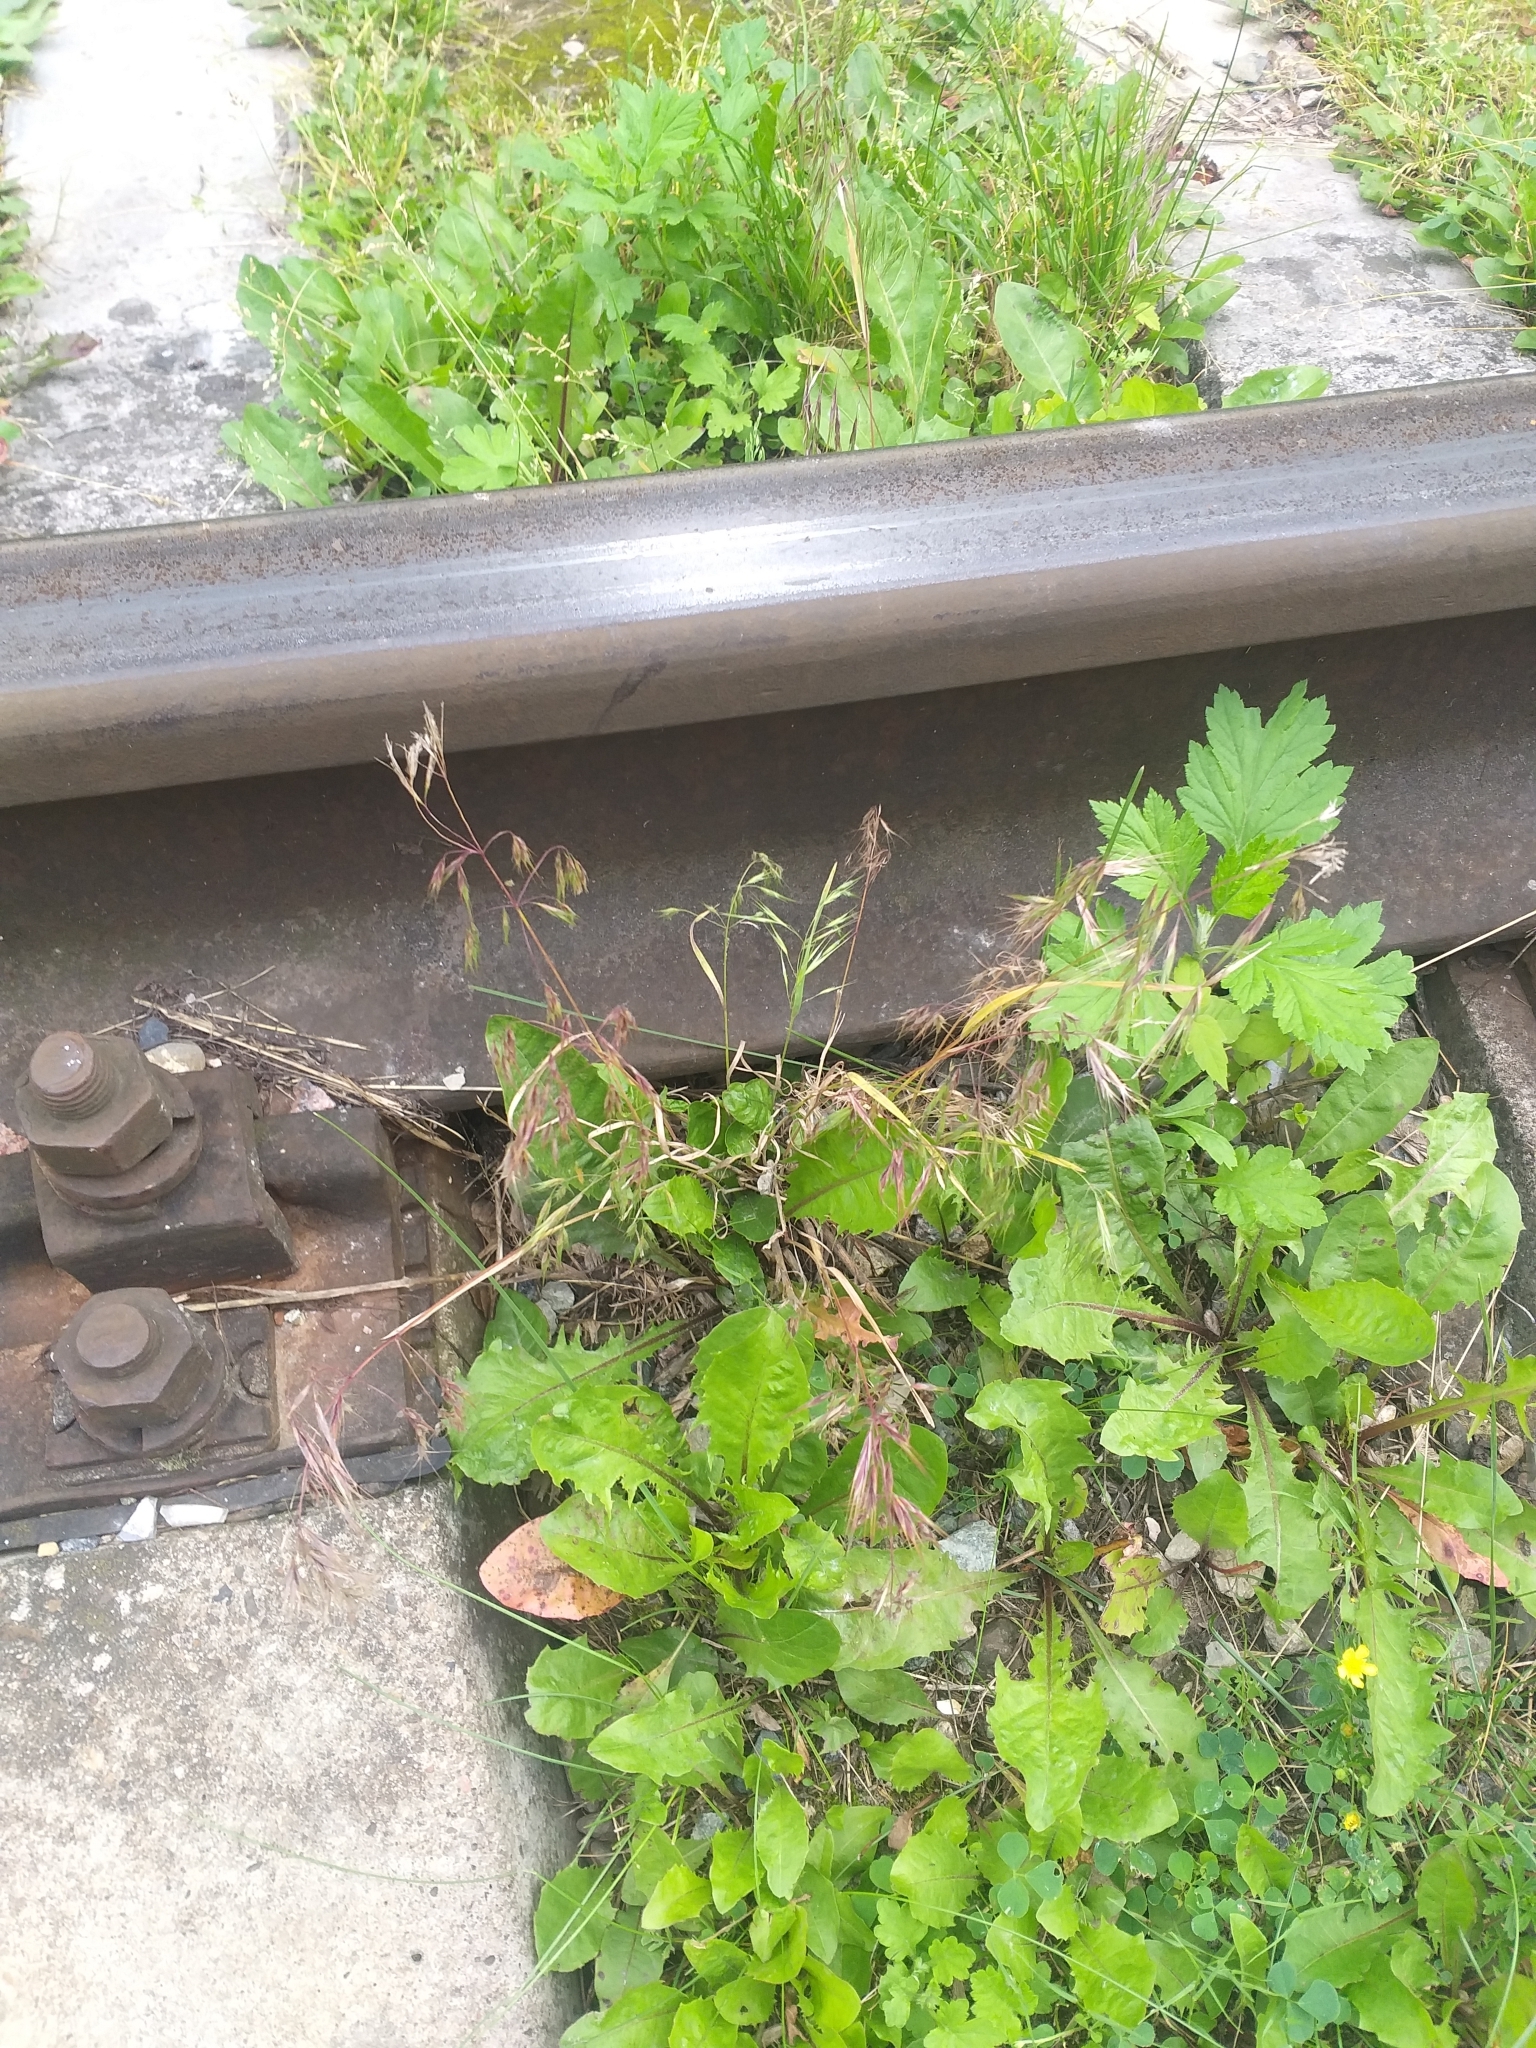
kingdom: Plantae
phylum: Tracheophyta
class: Liliopsida
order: Poales
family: Poaceae
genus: Bromus
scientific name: Bromus tectorum
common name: Cheatgrass
